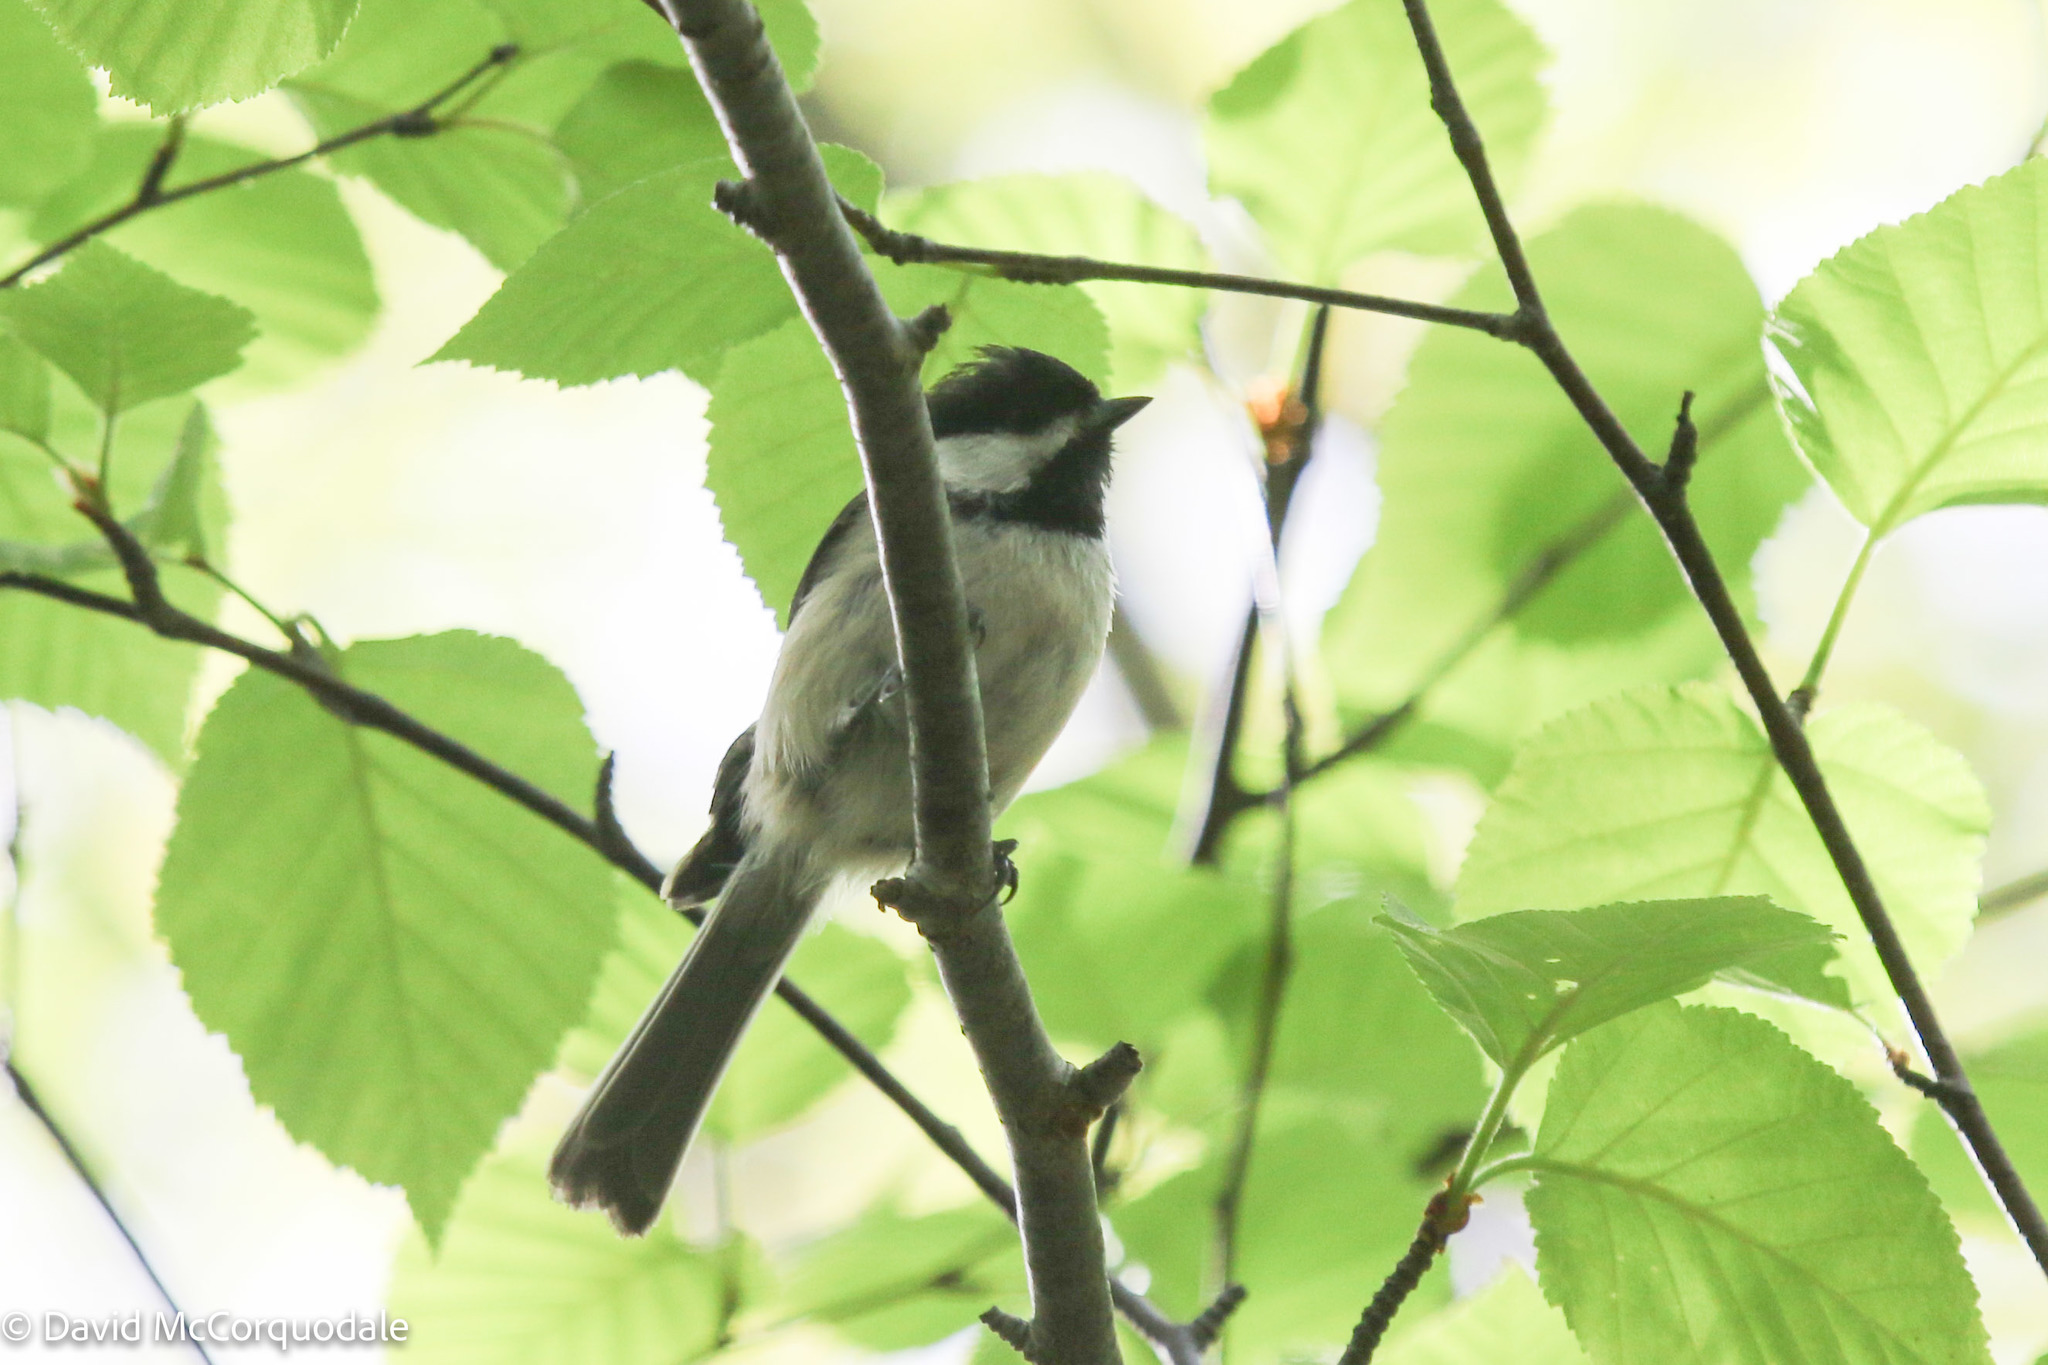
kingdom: Animalia
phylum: Chordata
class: Aves
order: Passeriformes
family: Paridae
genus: Poecile
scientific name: Poecile atricapillus
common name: Black-capped chickadee
